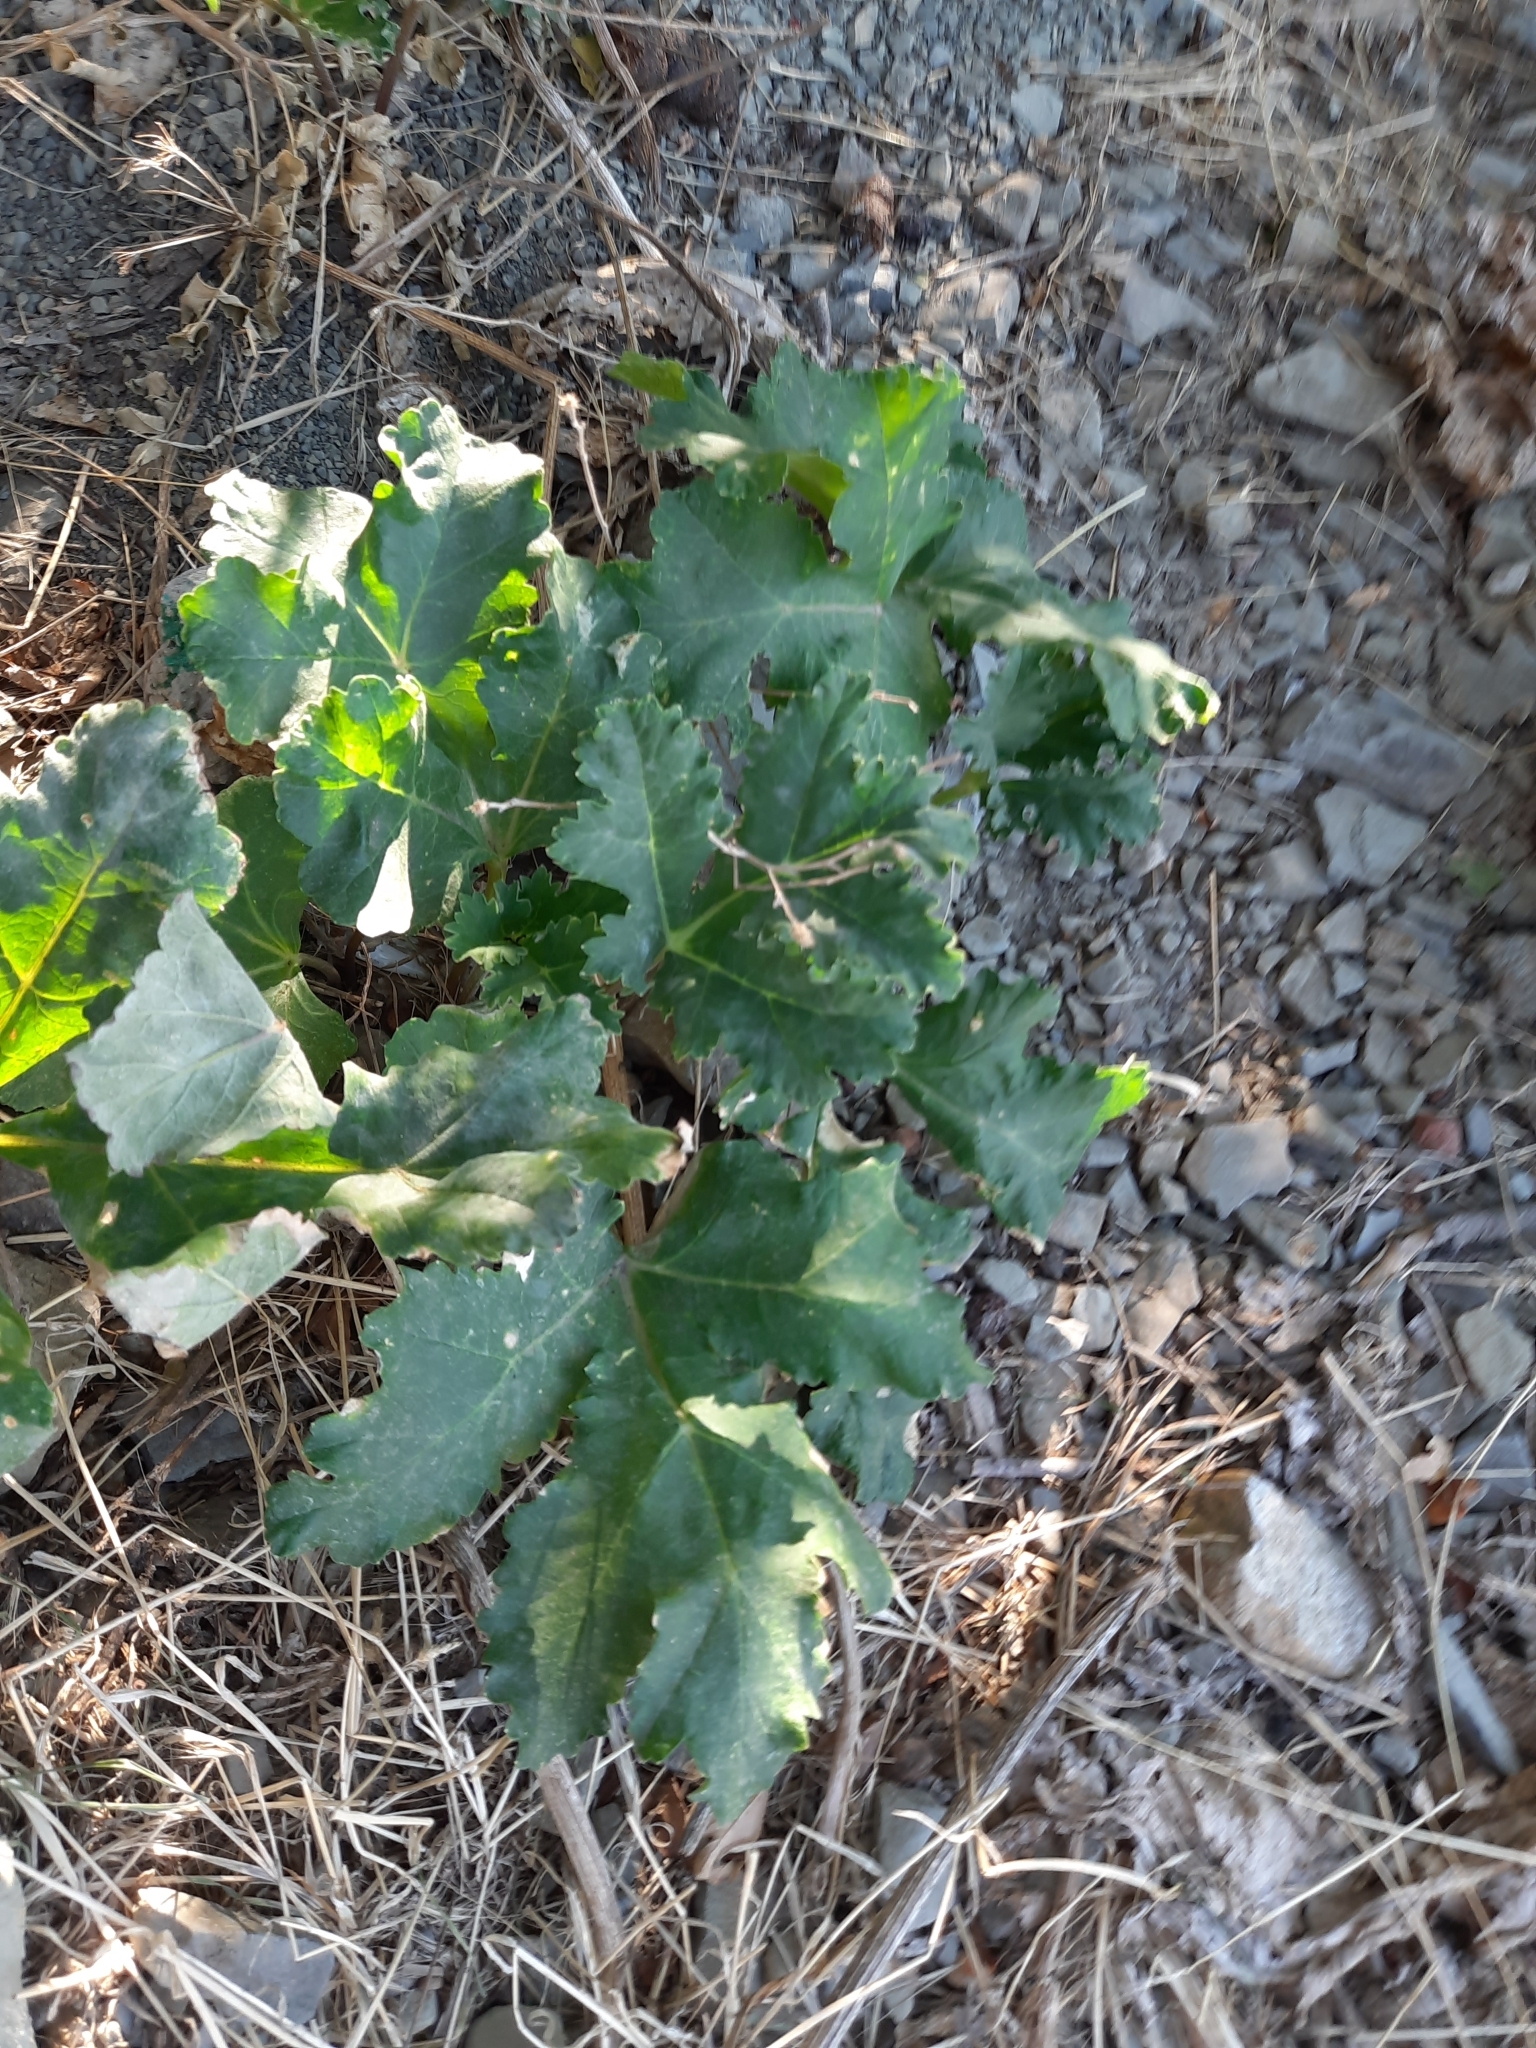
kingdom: Plantae
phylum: Tracheophyta
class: Magnoliopsida
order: Apiales
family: Apiaceae
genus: Heracleum
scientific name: Heracleum stevenii
